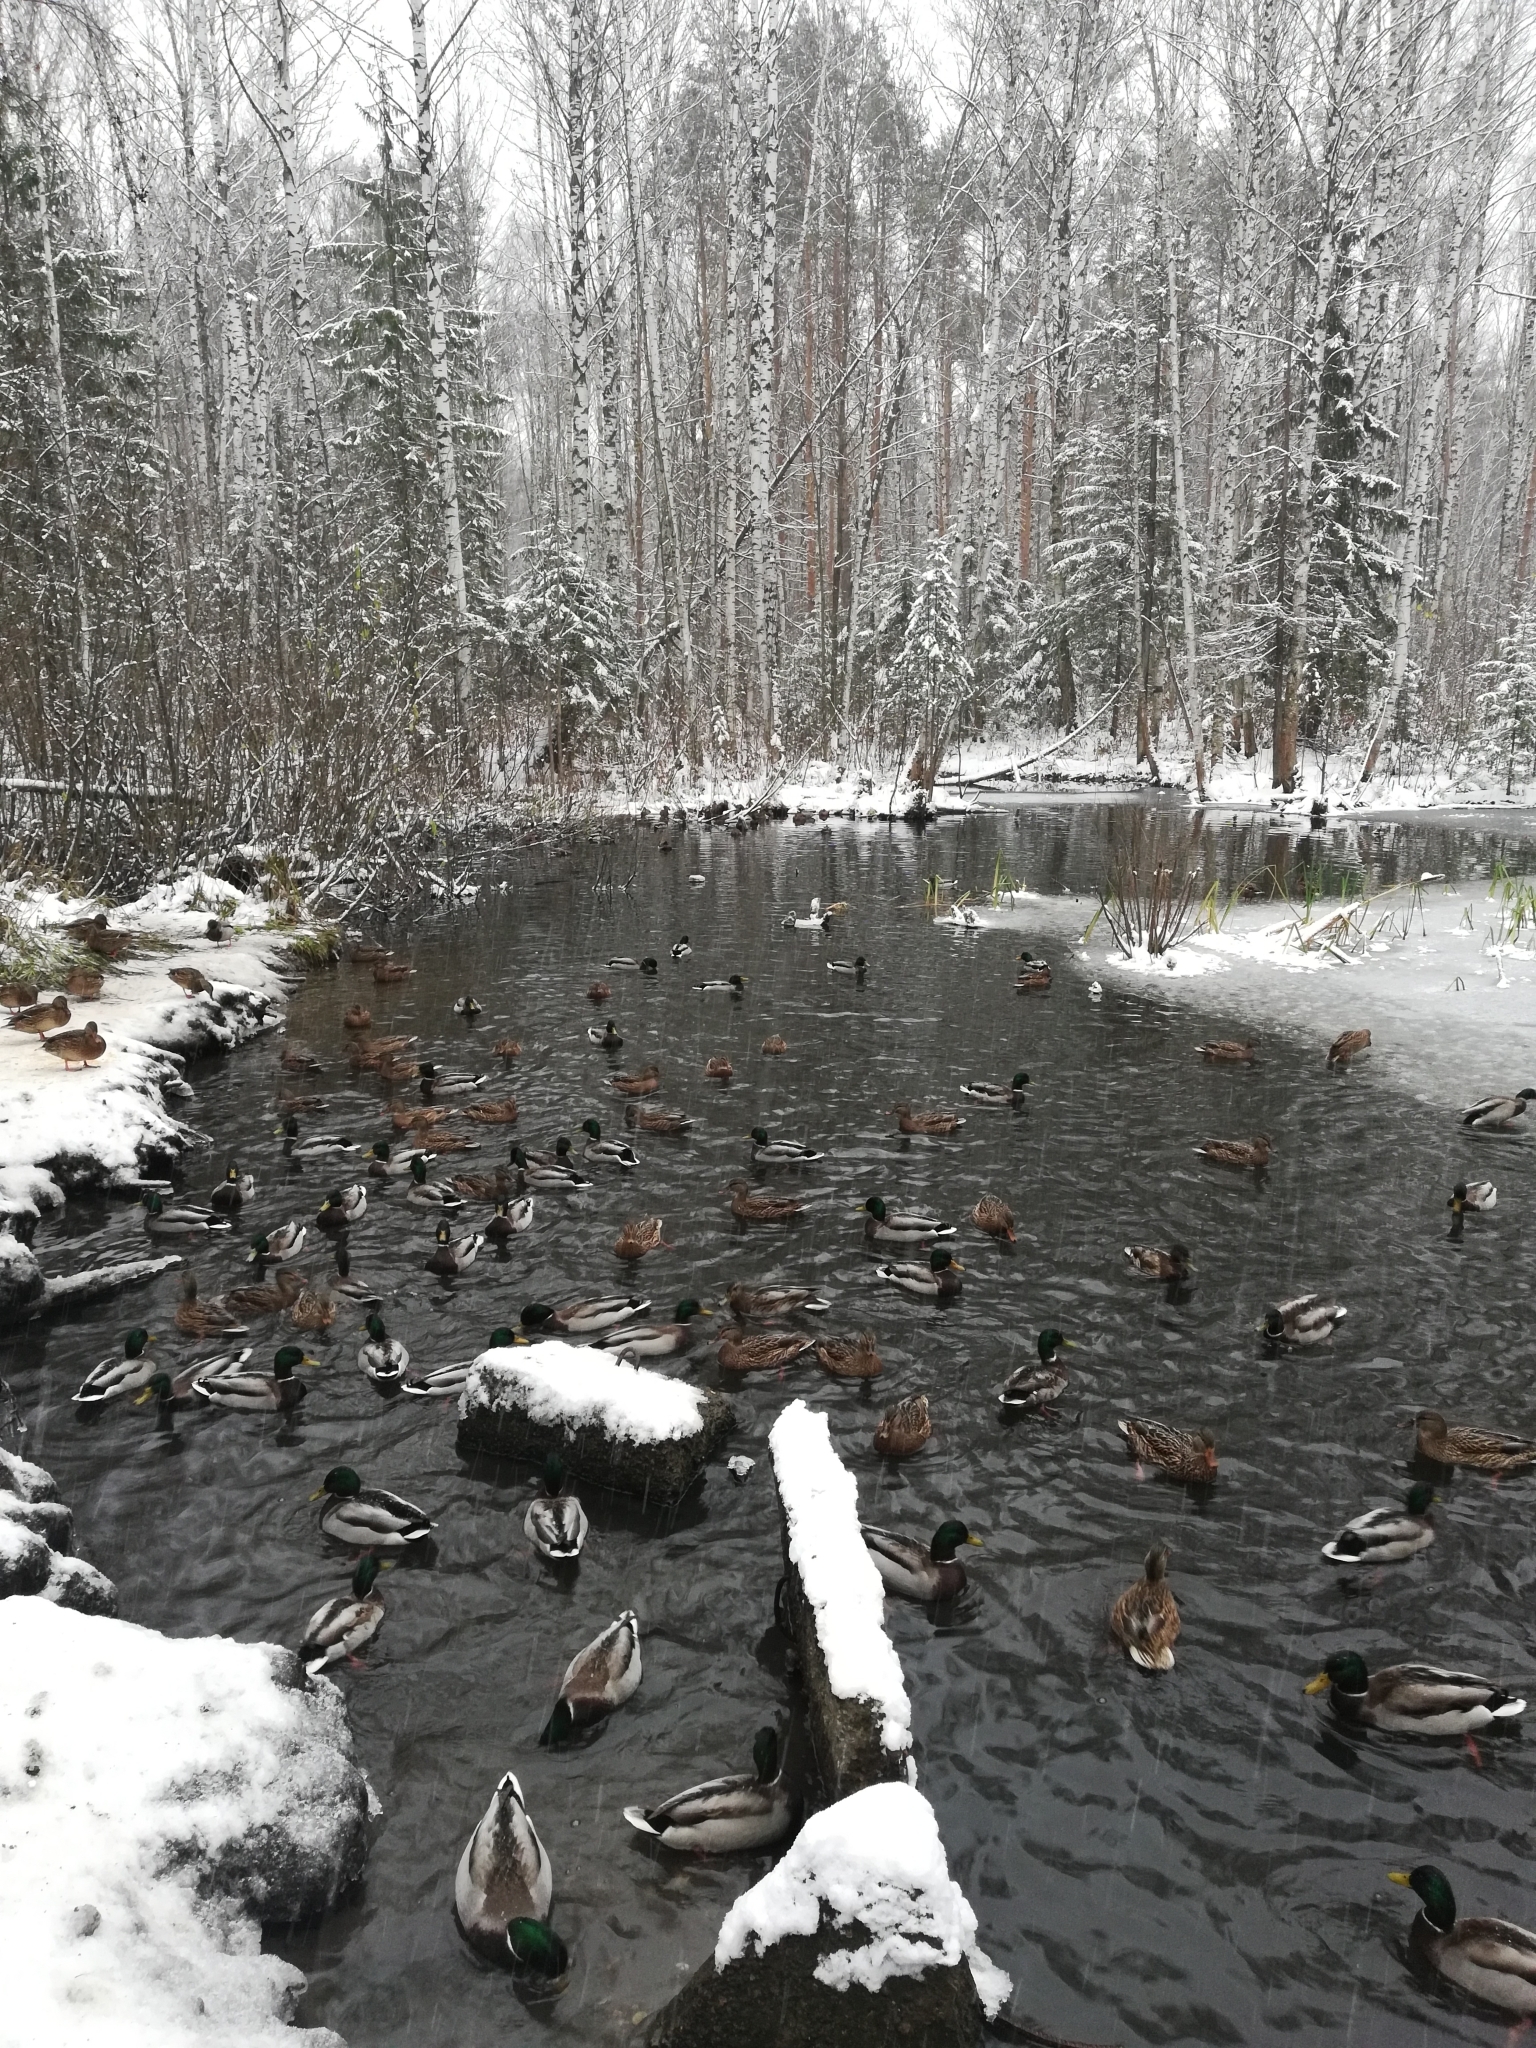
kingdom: Animalia
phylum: Chordata
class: Aves
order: Anseriformes
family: Anatidae
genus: Anas
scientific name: Anas platyrhynchos
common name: Mallard
